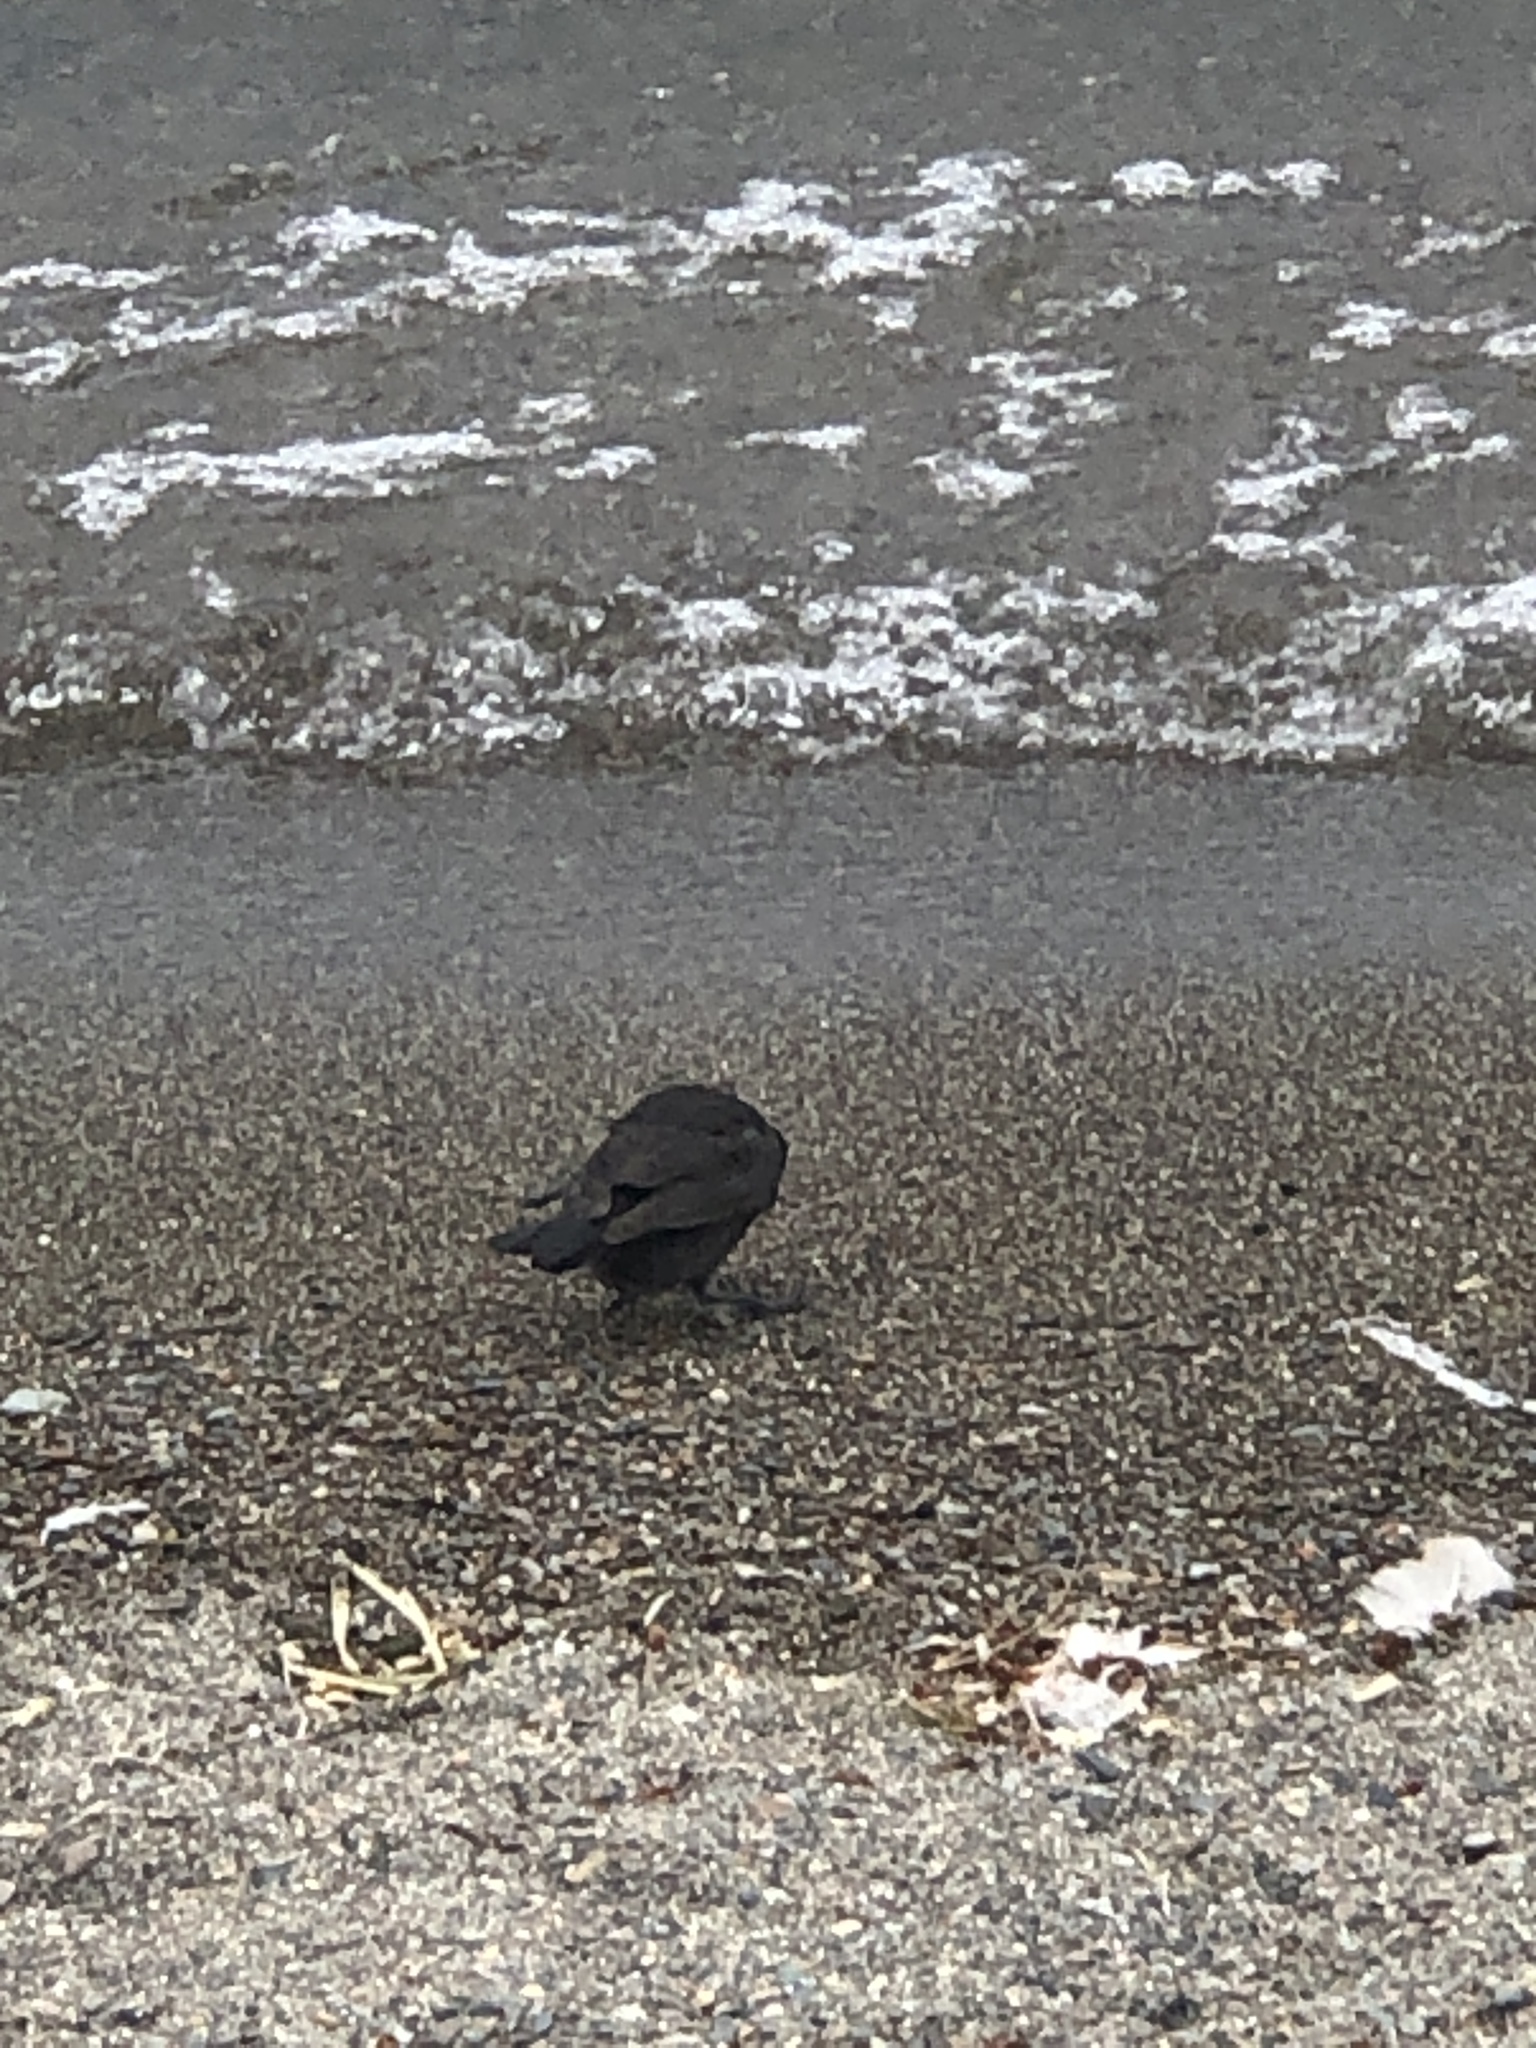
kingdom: Animalia
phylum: Chordata
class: Aves
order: Passeriformes
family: Icteridae
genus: Euphagus
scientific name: Euphagus cyanocephalus
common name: Brewer's blackbird
